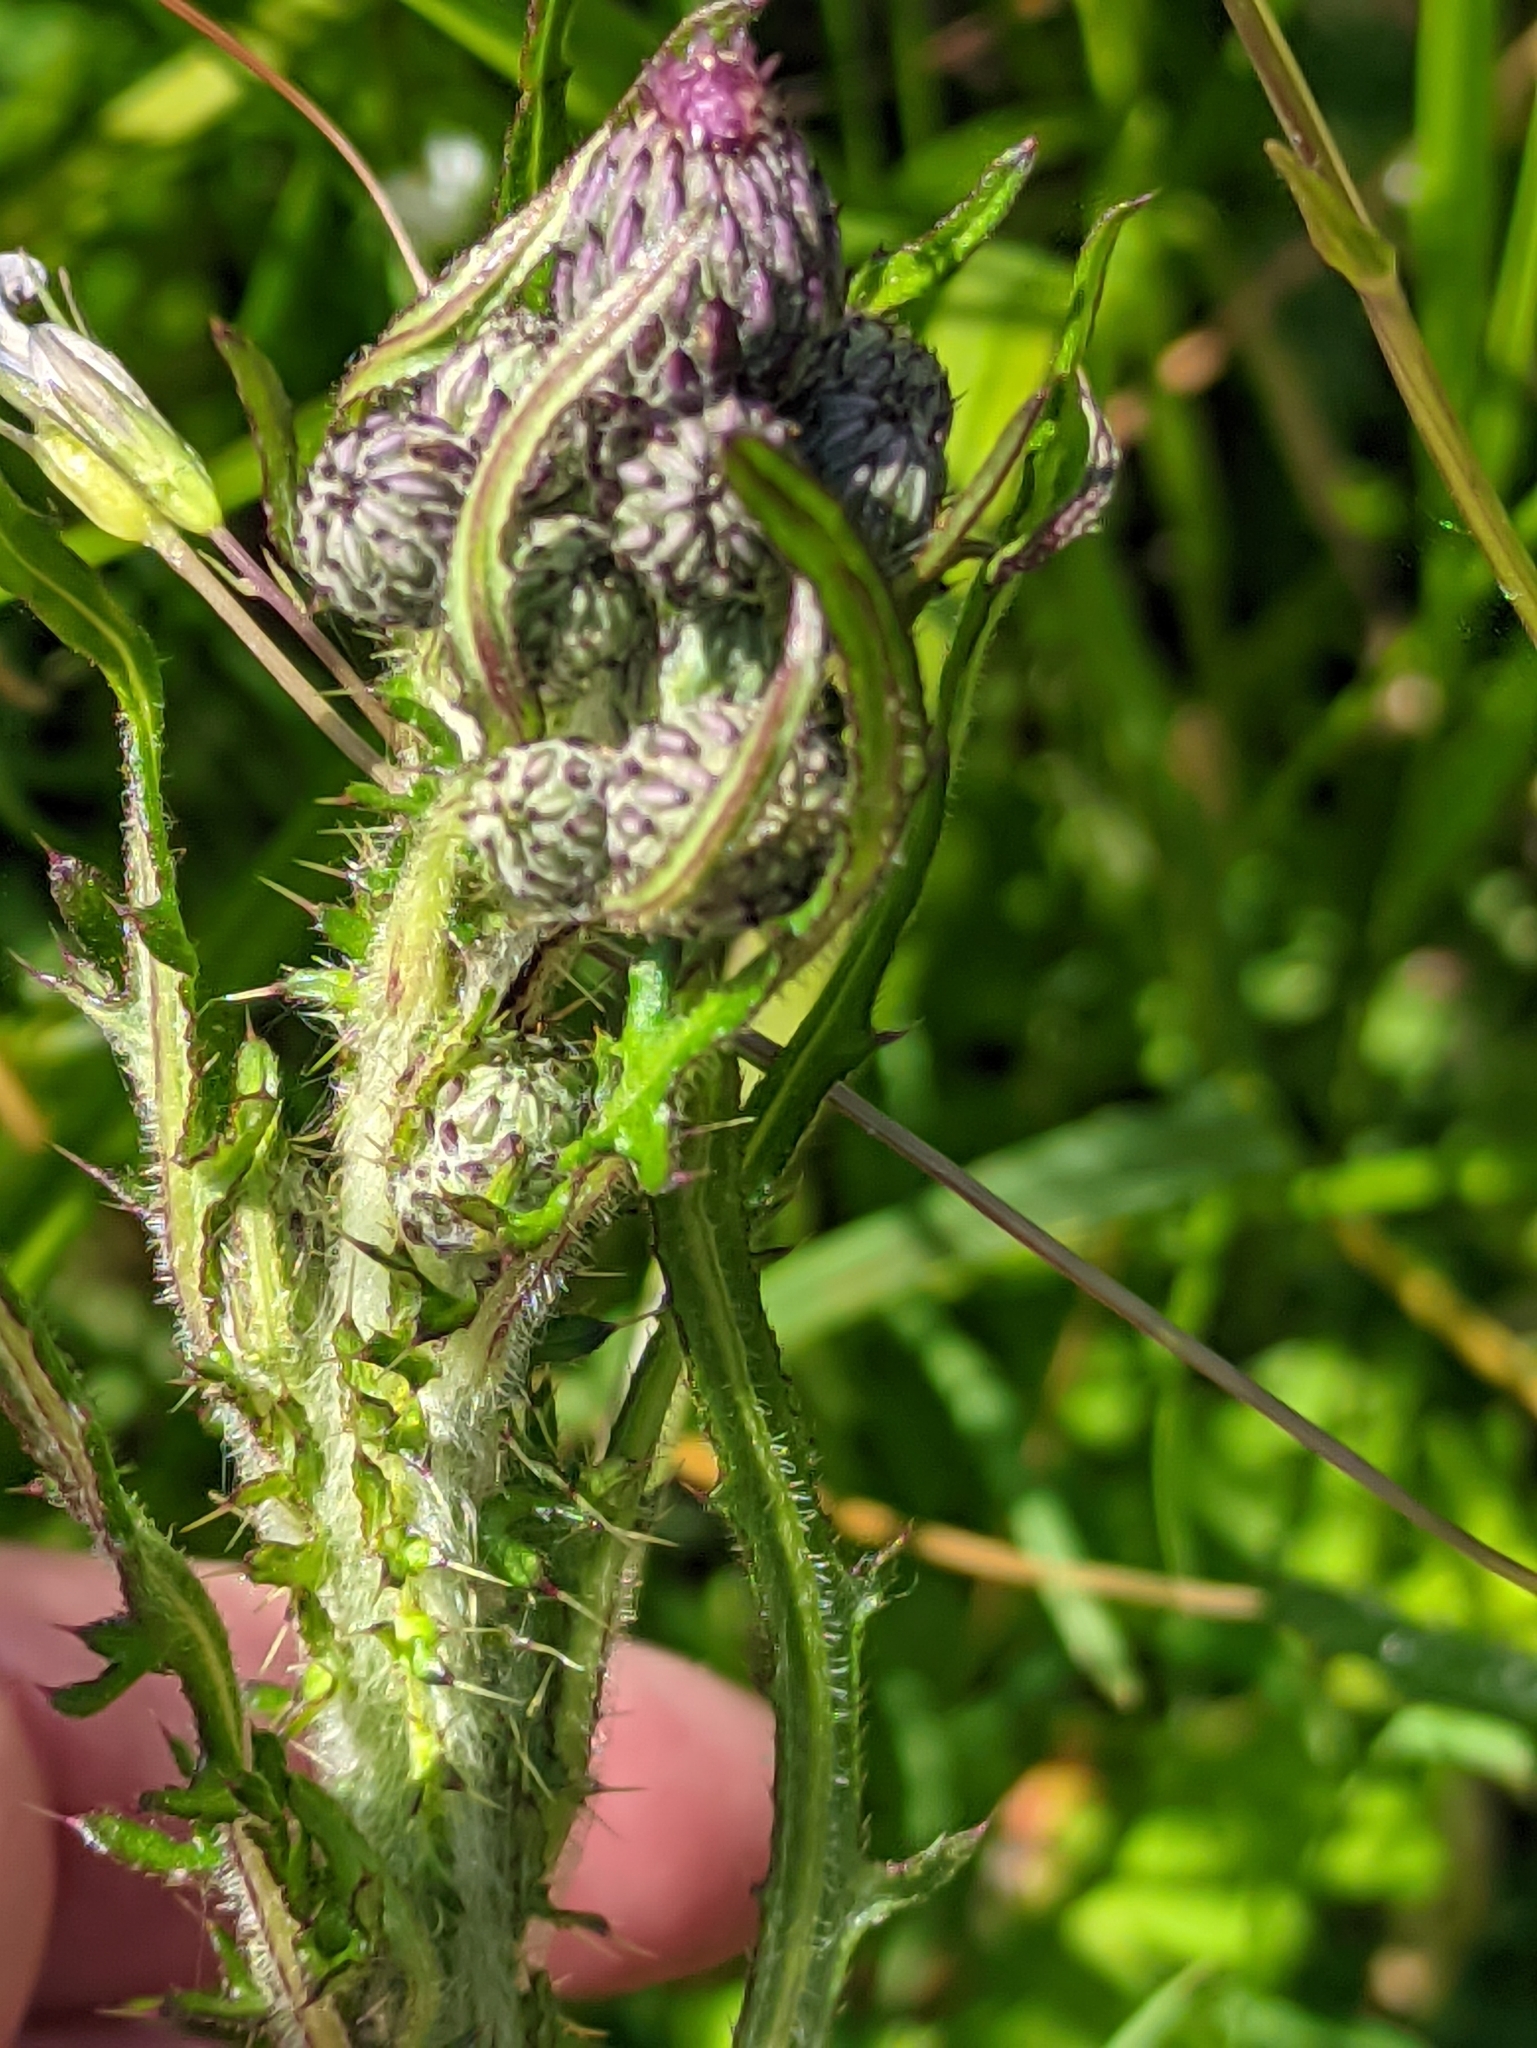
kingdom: Plantae
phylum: Tracheophyta
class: Magnoliopsida
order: Asterales
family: Asteraceae
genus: Cirsium
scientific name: Cirsium palustre
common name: Marsh thistle
